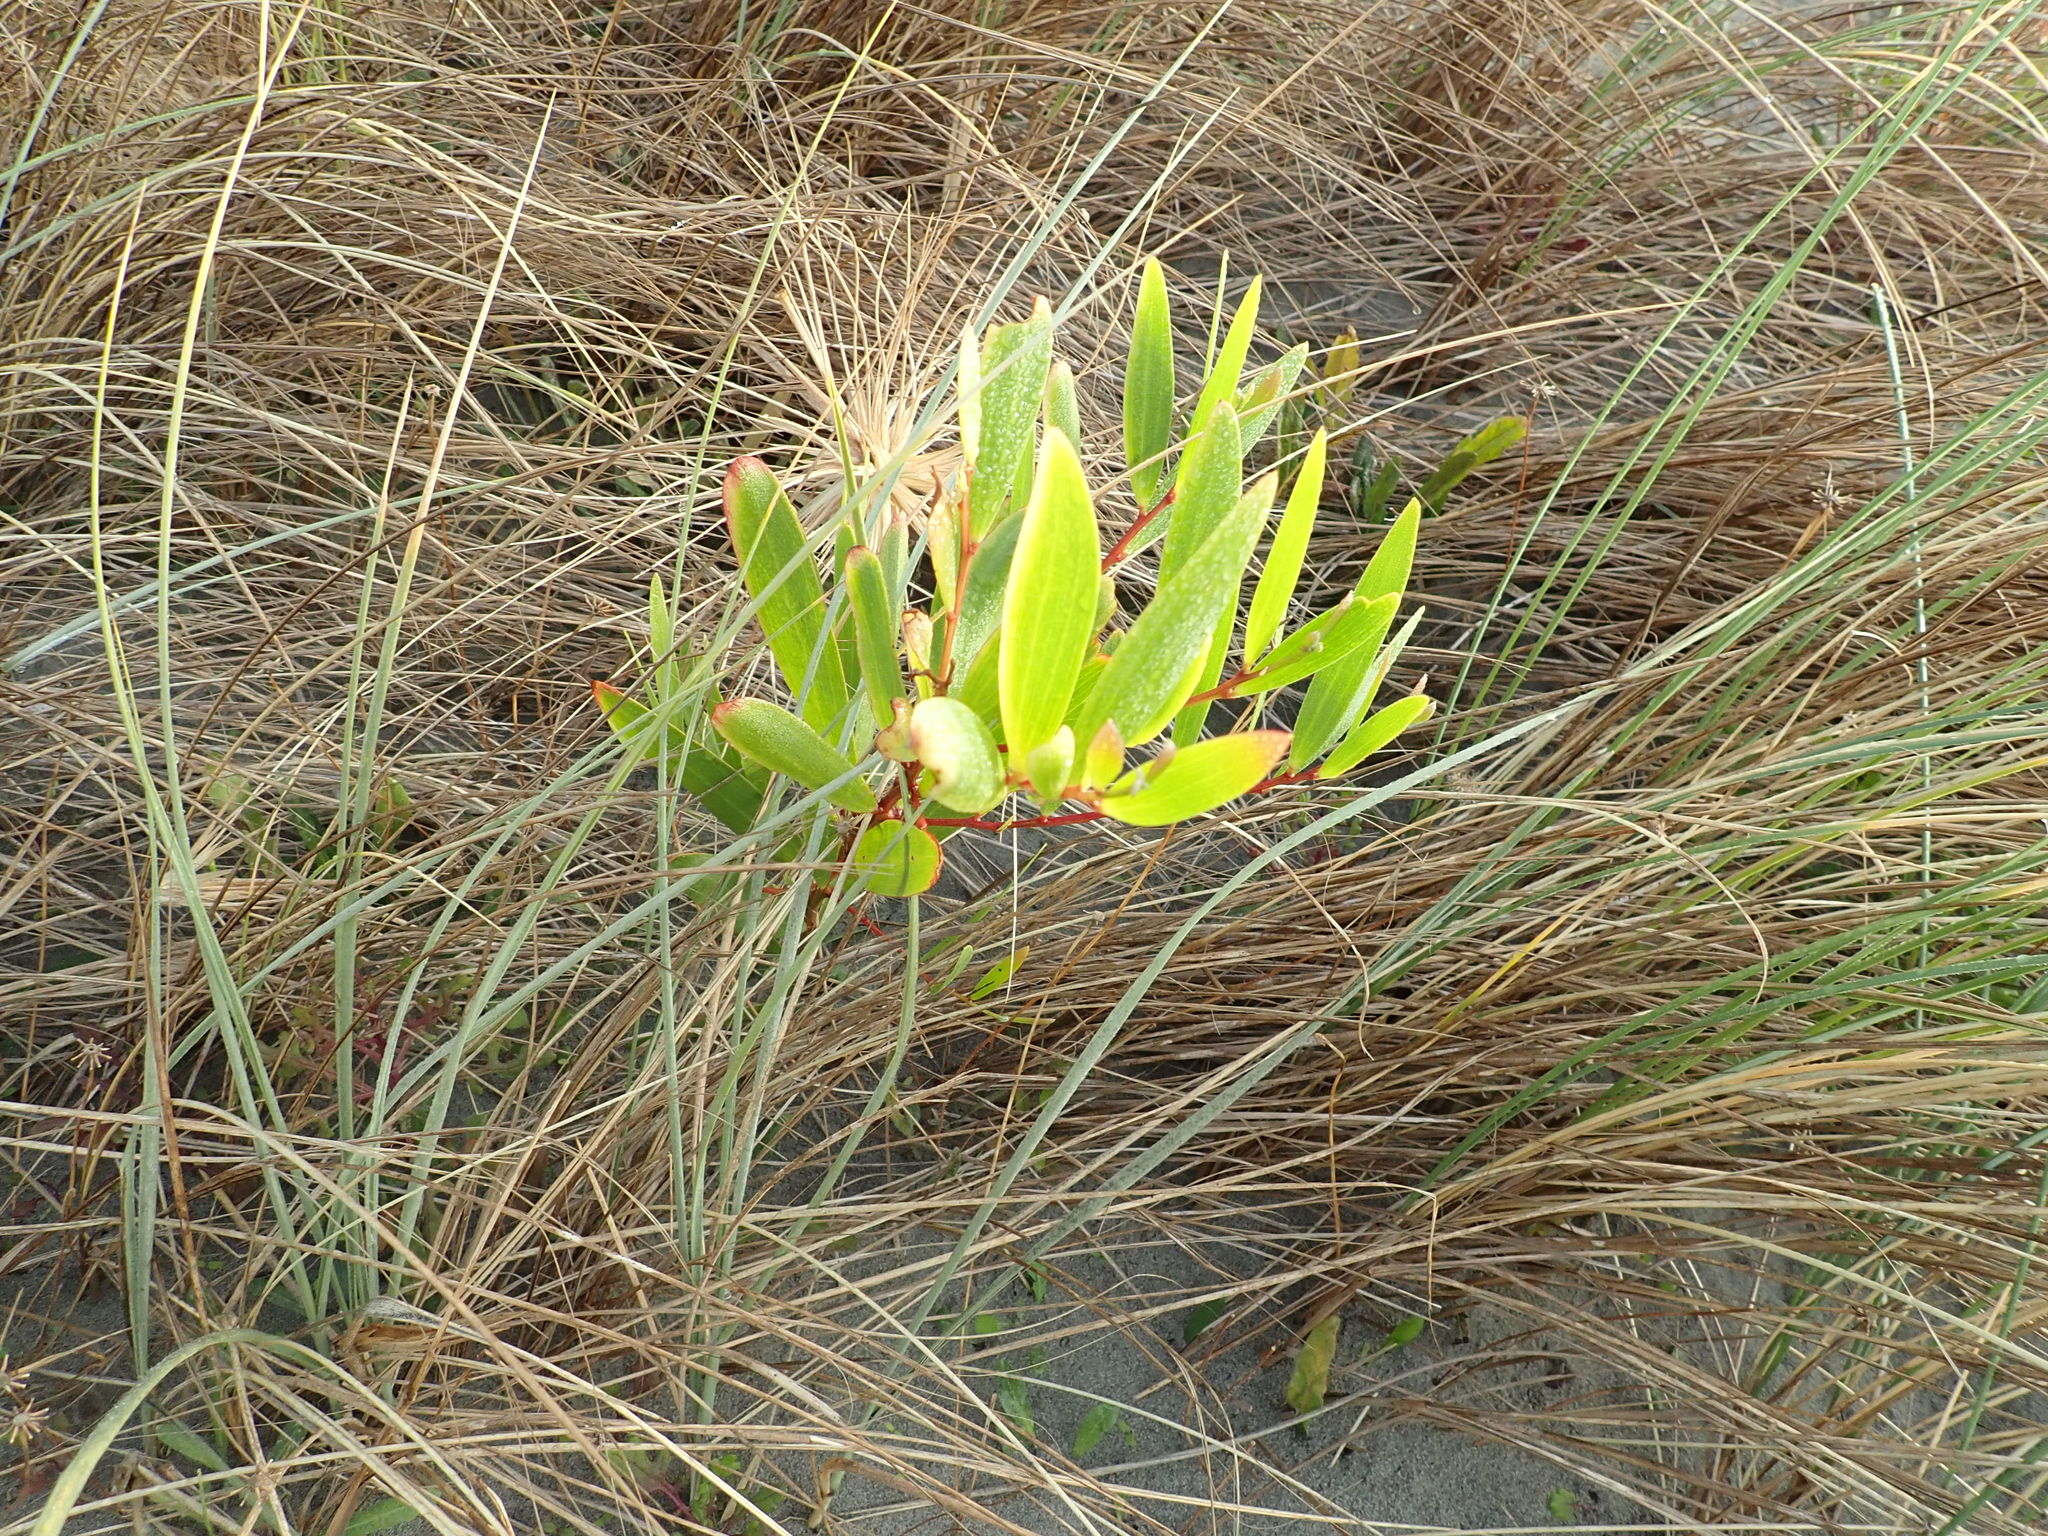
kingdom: Plantae
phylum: Tracheophyta
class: Magnoliopsida
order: Fabales
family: Fabaceae
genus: Acacia
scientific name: Acacia longifolia
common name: Sydney golden wattle
